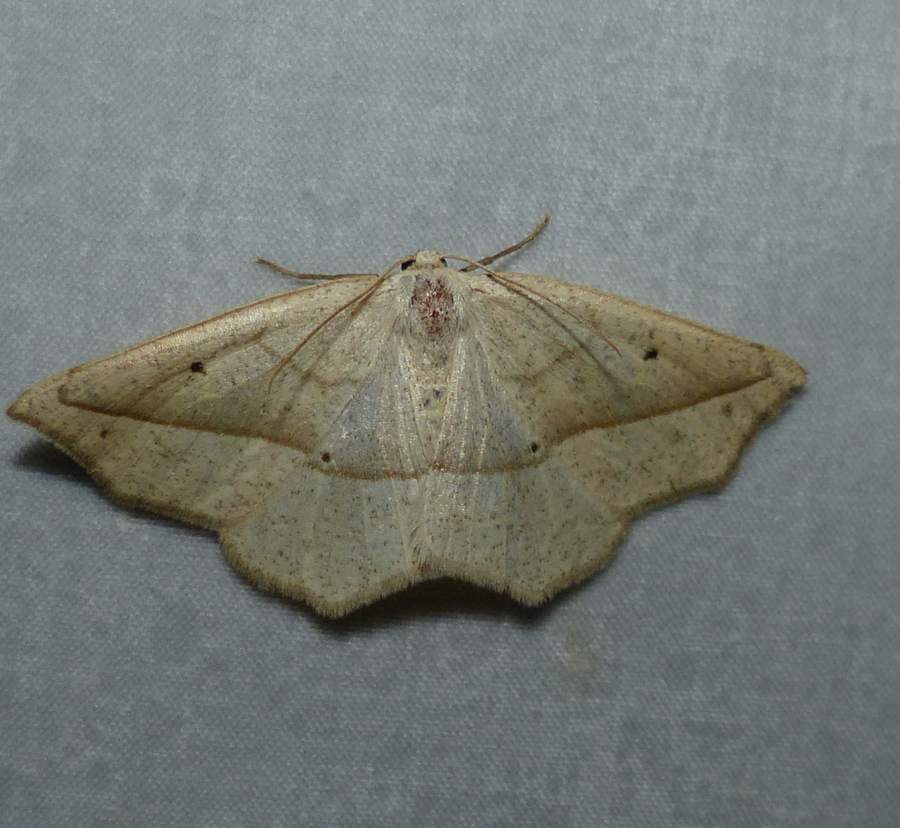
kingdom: Animalia
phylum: Arthropoda
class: Insecta
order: Lepidoptera
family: Geometridae
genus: Eusarca
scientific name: Eusarca confusaria
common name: Confused eusarca
